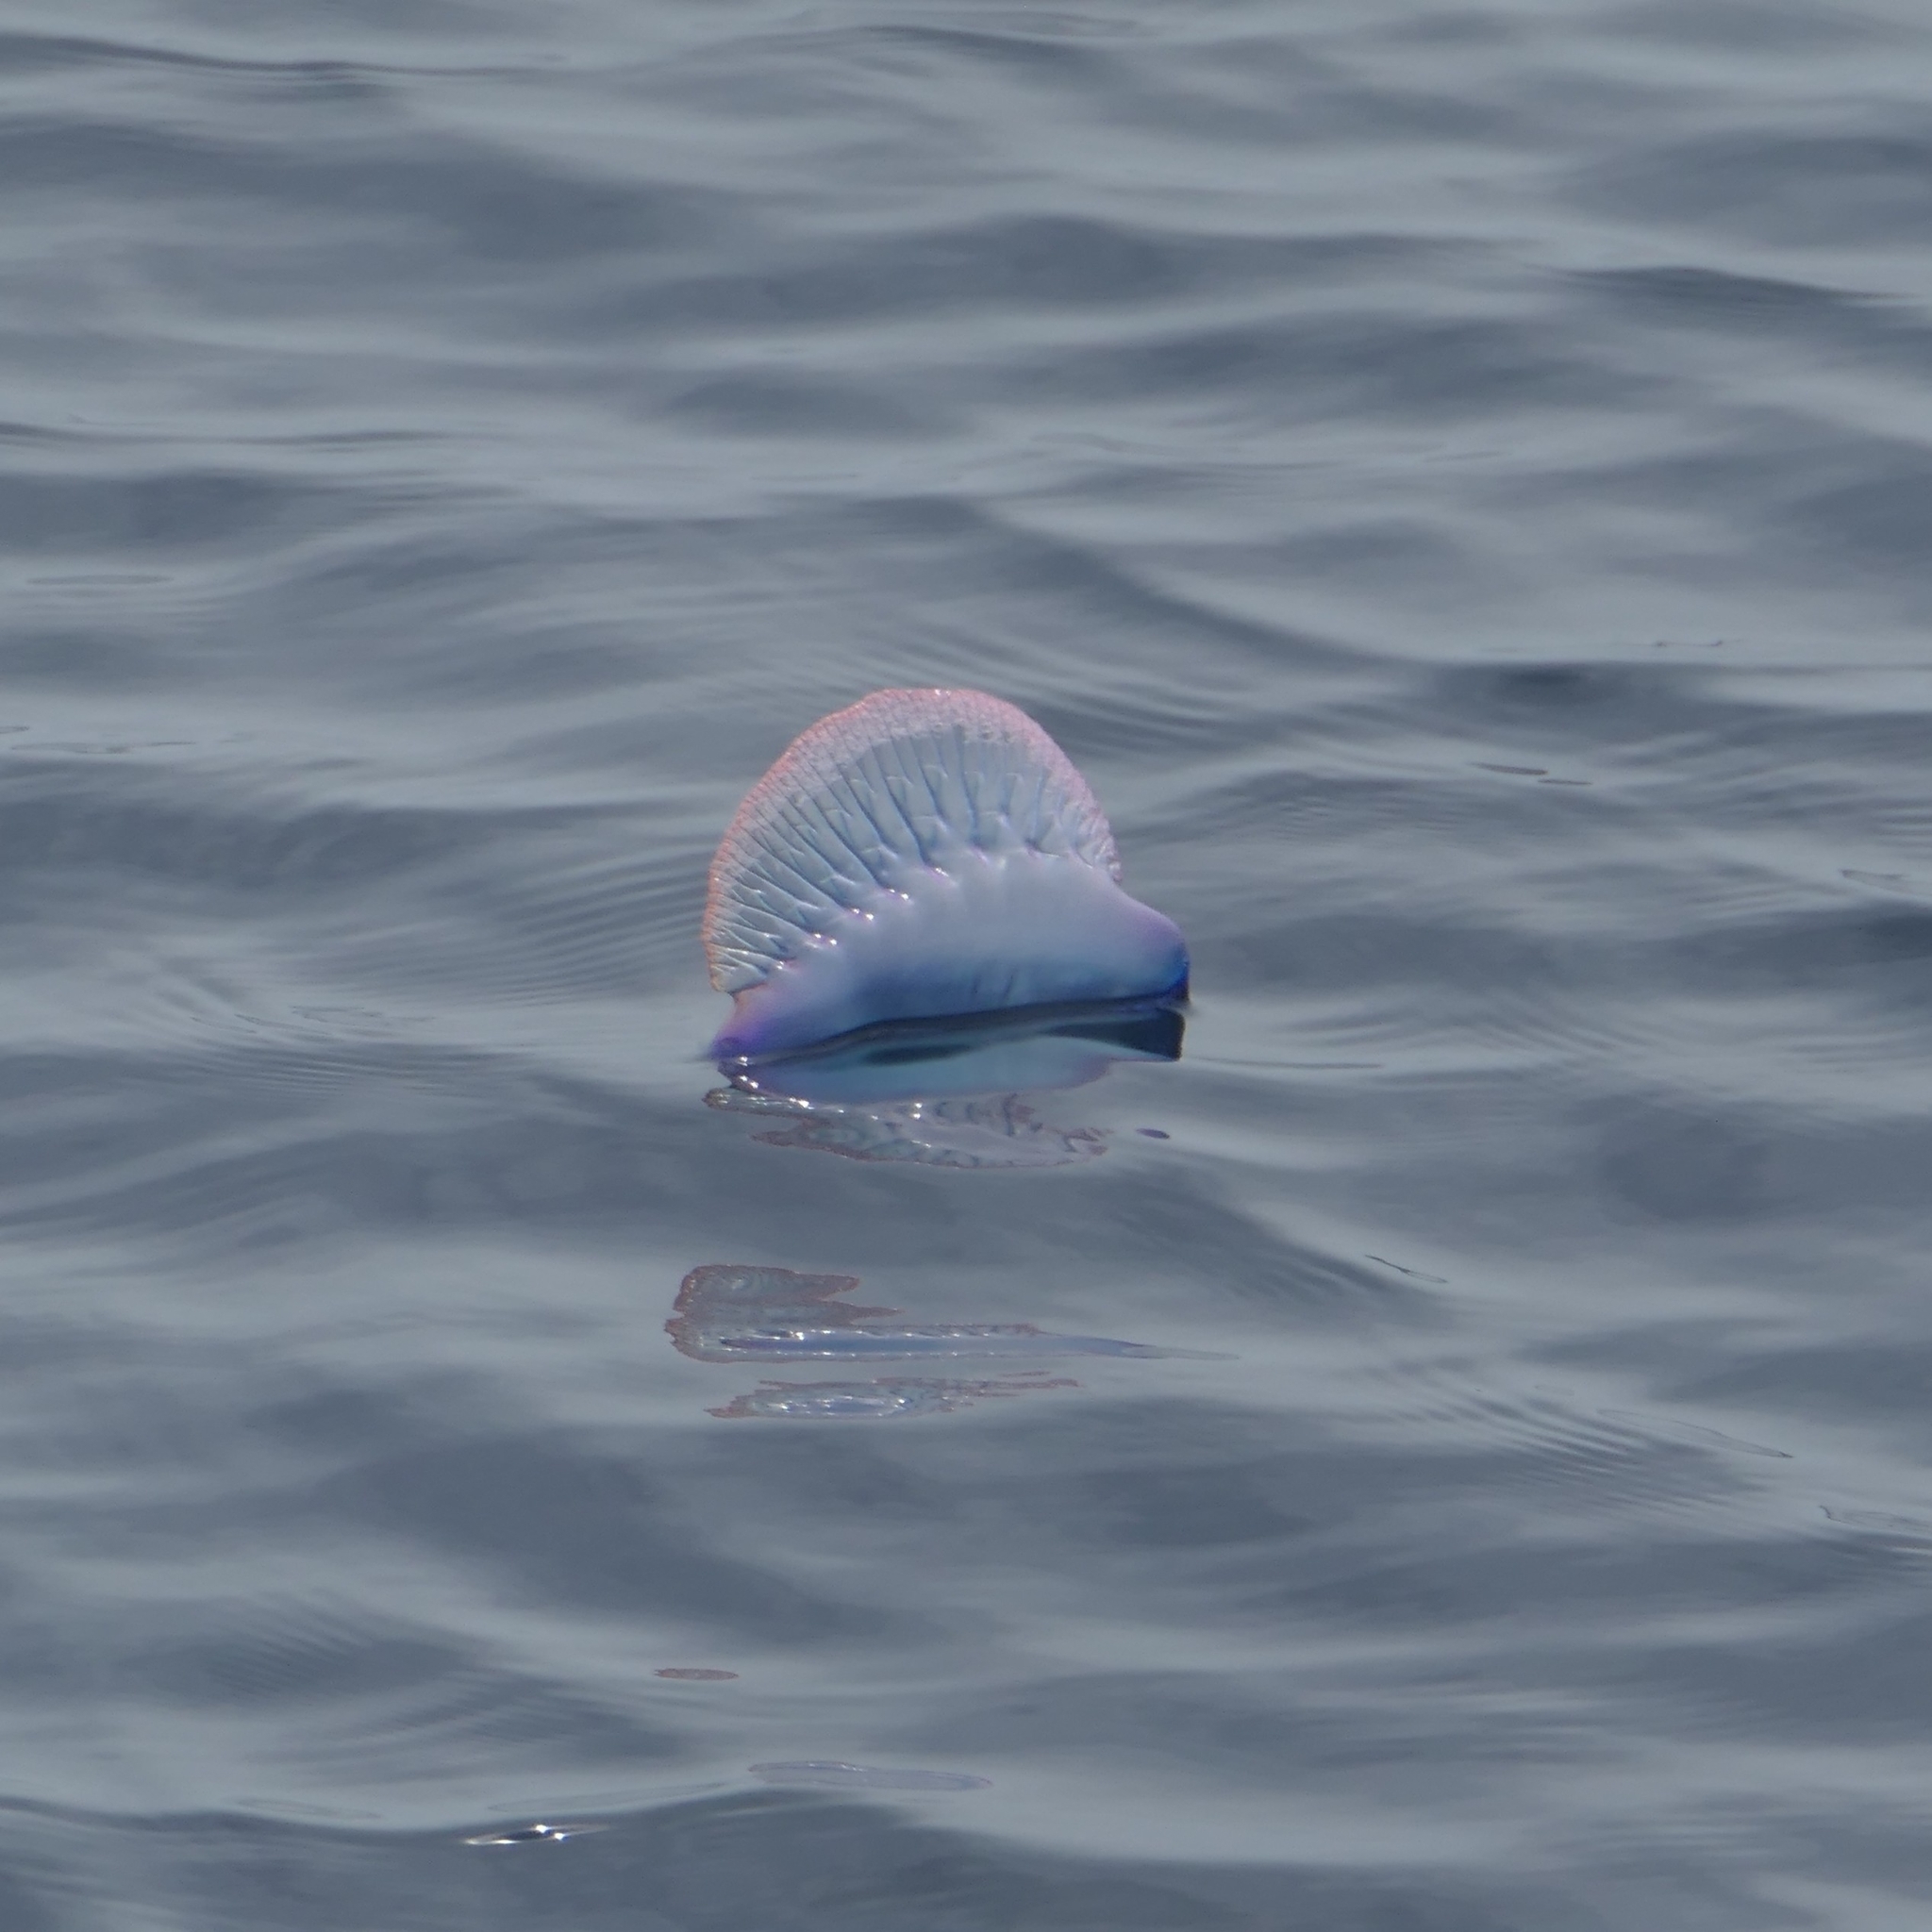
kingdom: Animalia
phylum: Cnidaria
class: Hydrozoa
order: Siphonophorae
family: Physaliidae
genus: Physalia
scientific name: Physalia physalis
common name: Portuguese man-of-war
